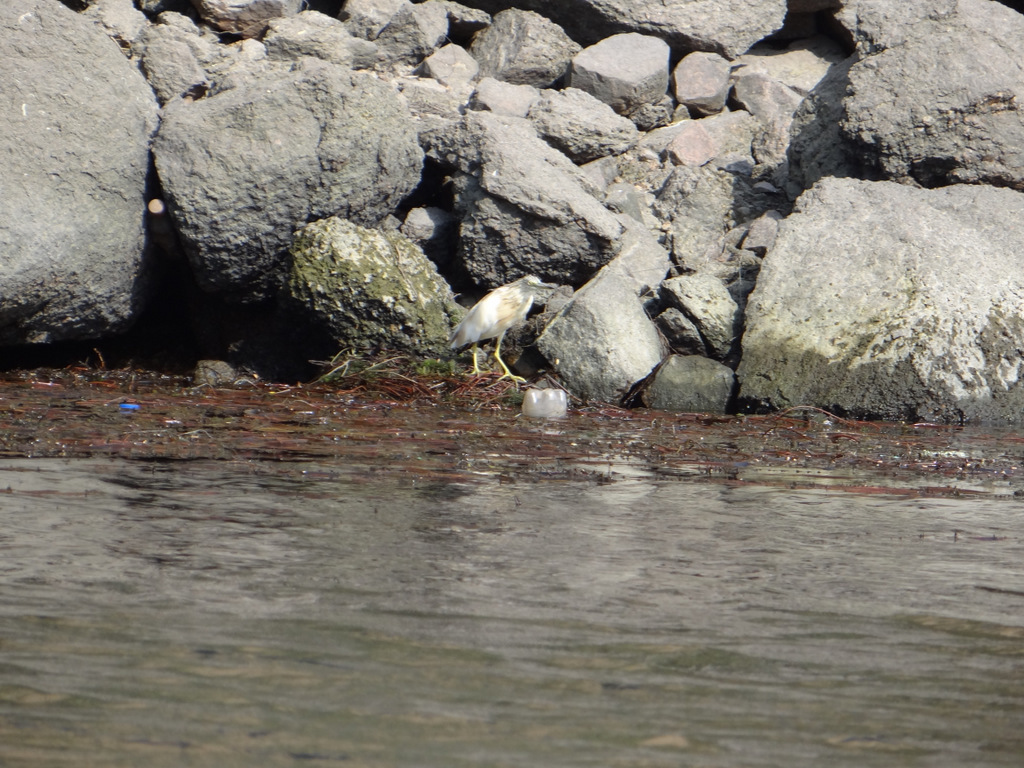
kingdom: Animalia
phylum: Chordata
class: Aves
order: Pelecaniformes
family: Ardeidae
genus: Ardeola
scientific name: Ardeola ralloides
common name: Squacco heron
